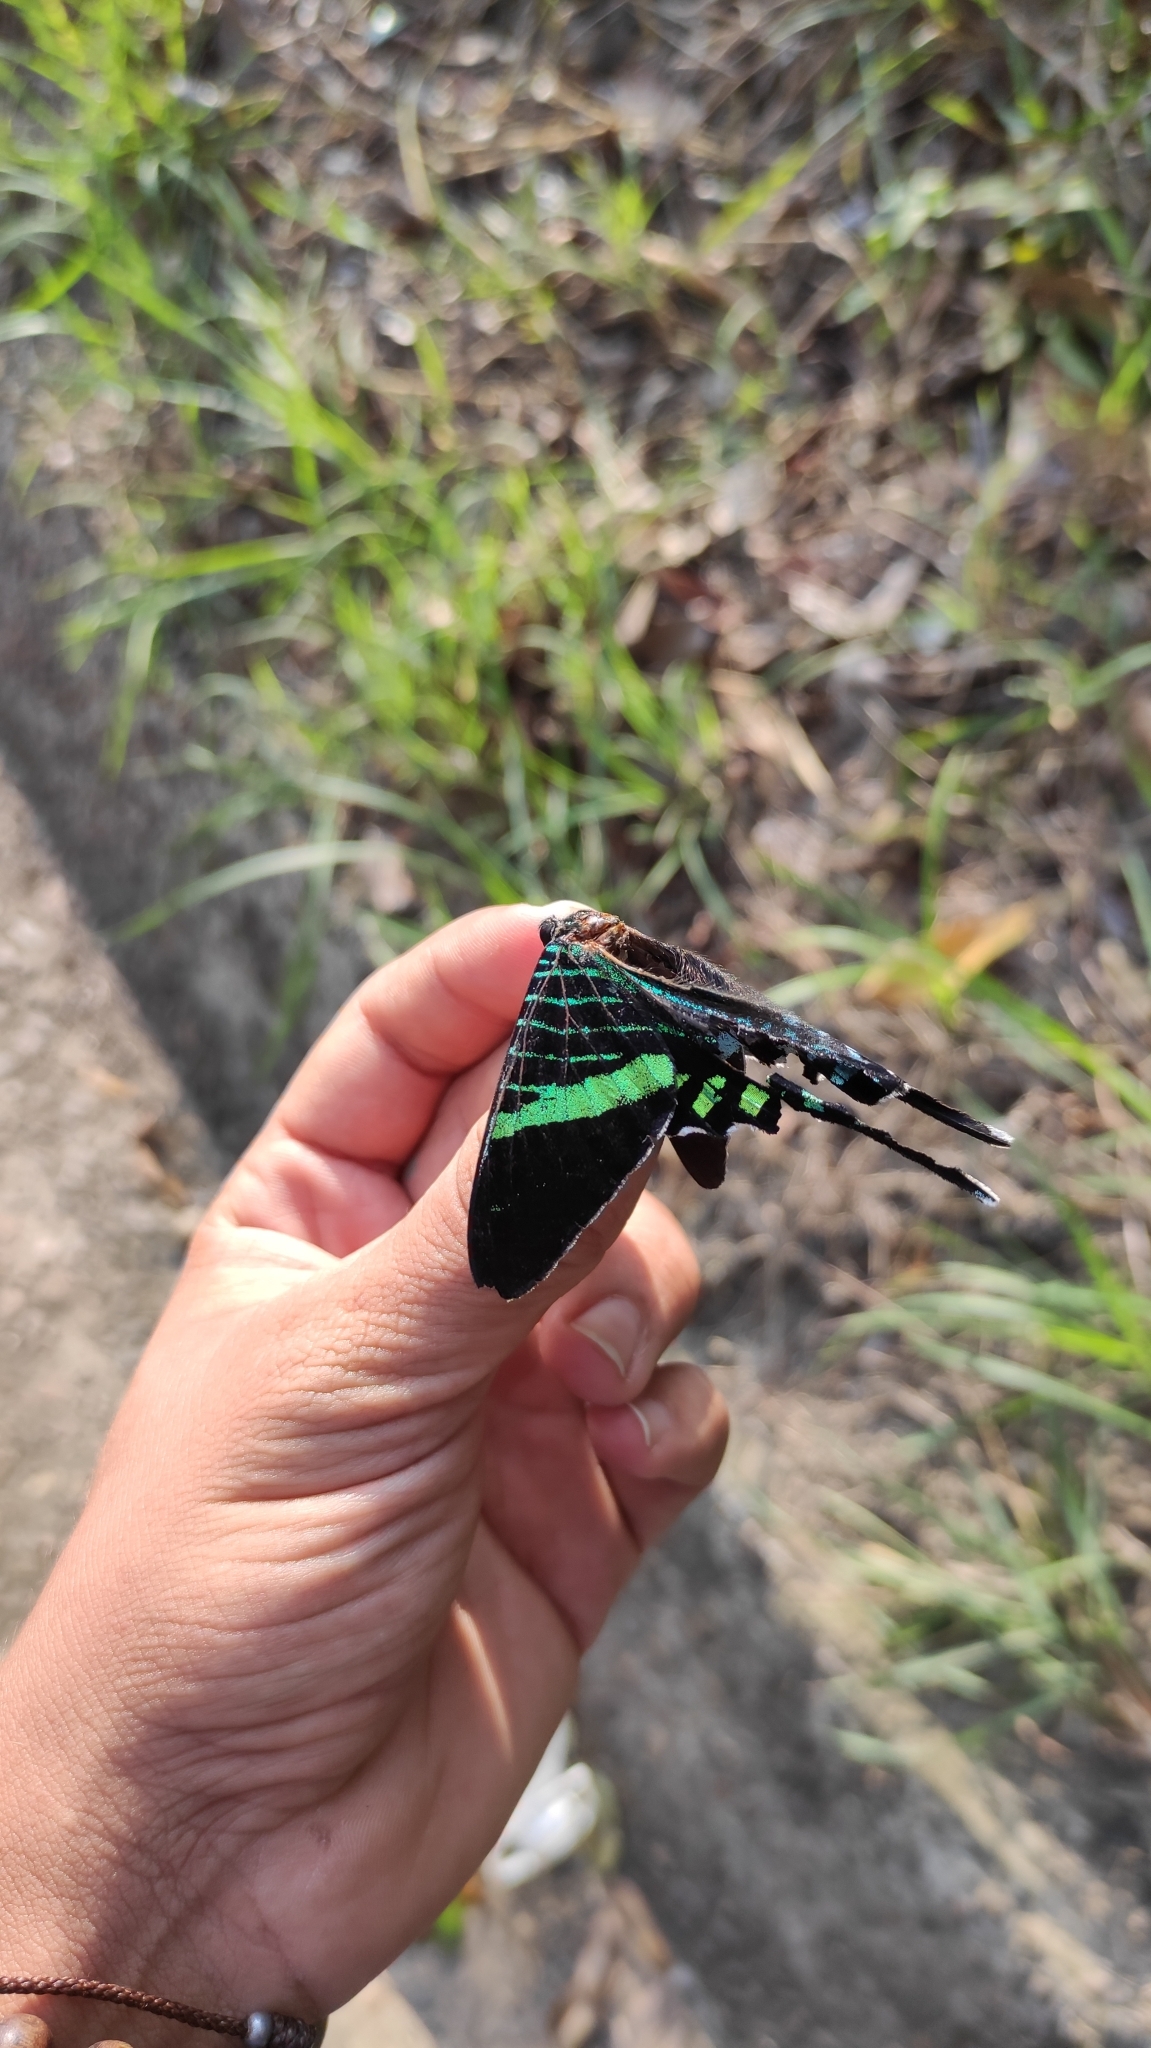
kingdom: Animalia
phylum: Arthropoda
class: Insecta
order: Lepidoptera
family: Uraniidae
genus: Urania
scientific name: Urania fulgens
